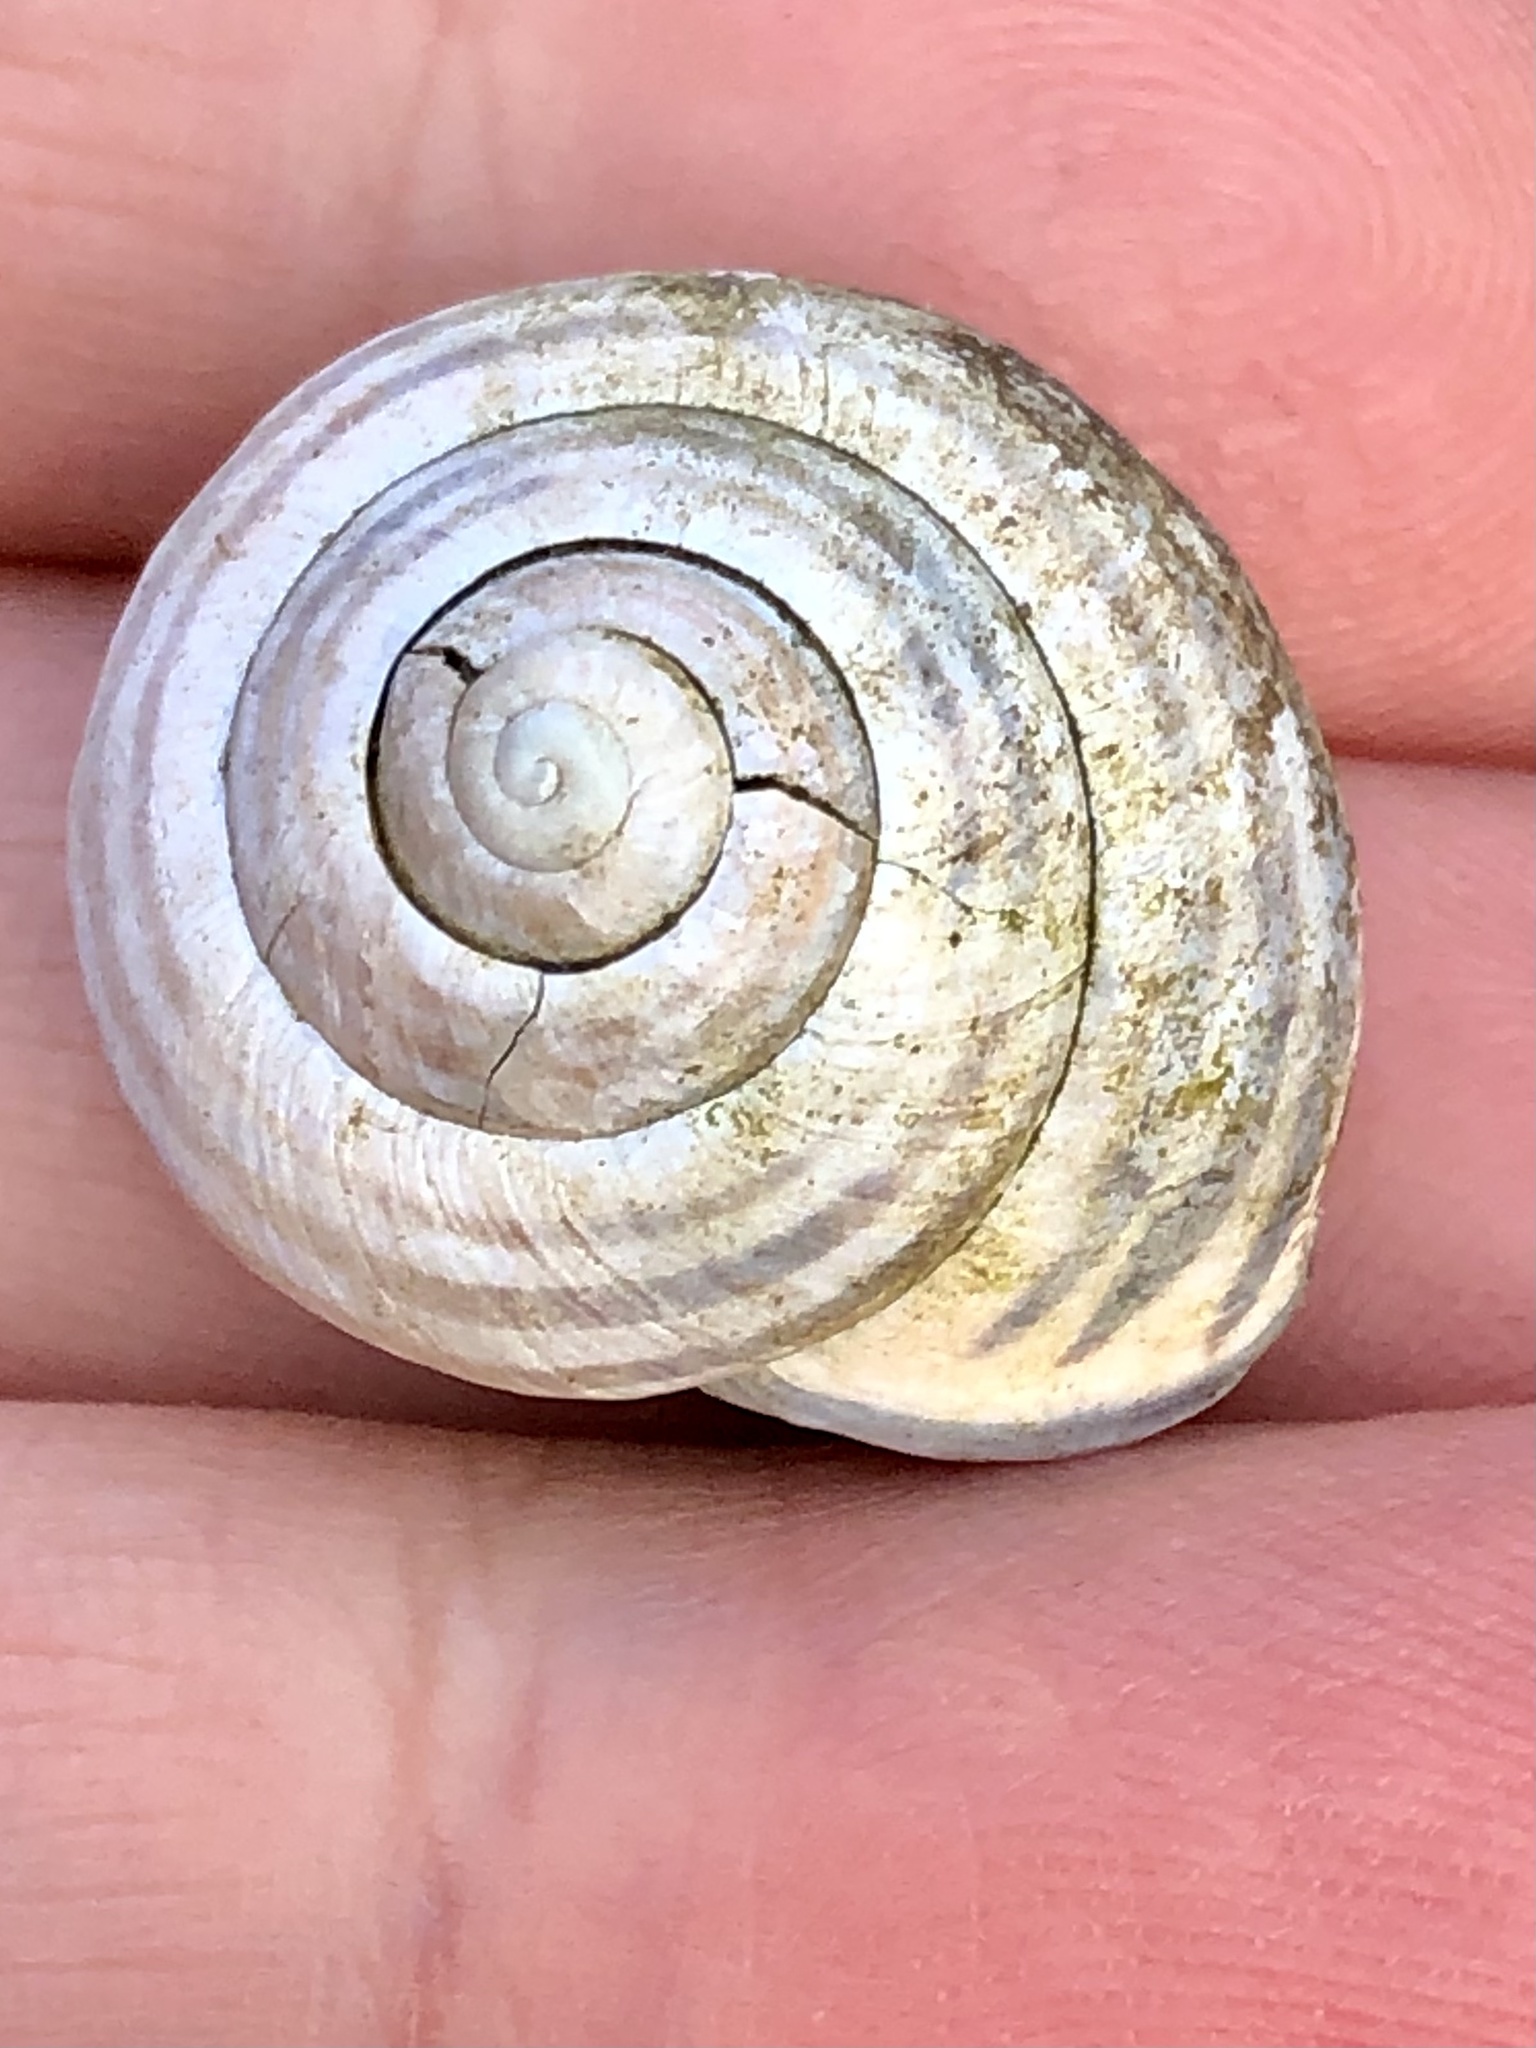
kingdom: Animalia
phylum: Mollusca
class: Gastropoda
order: Stylommatophora
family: Helicidae
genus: Cepaea
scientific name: Cepaea nemoralis
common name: Grovesnail
